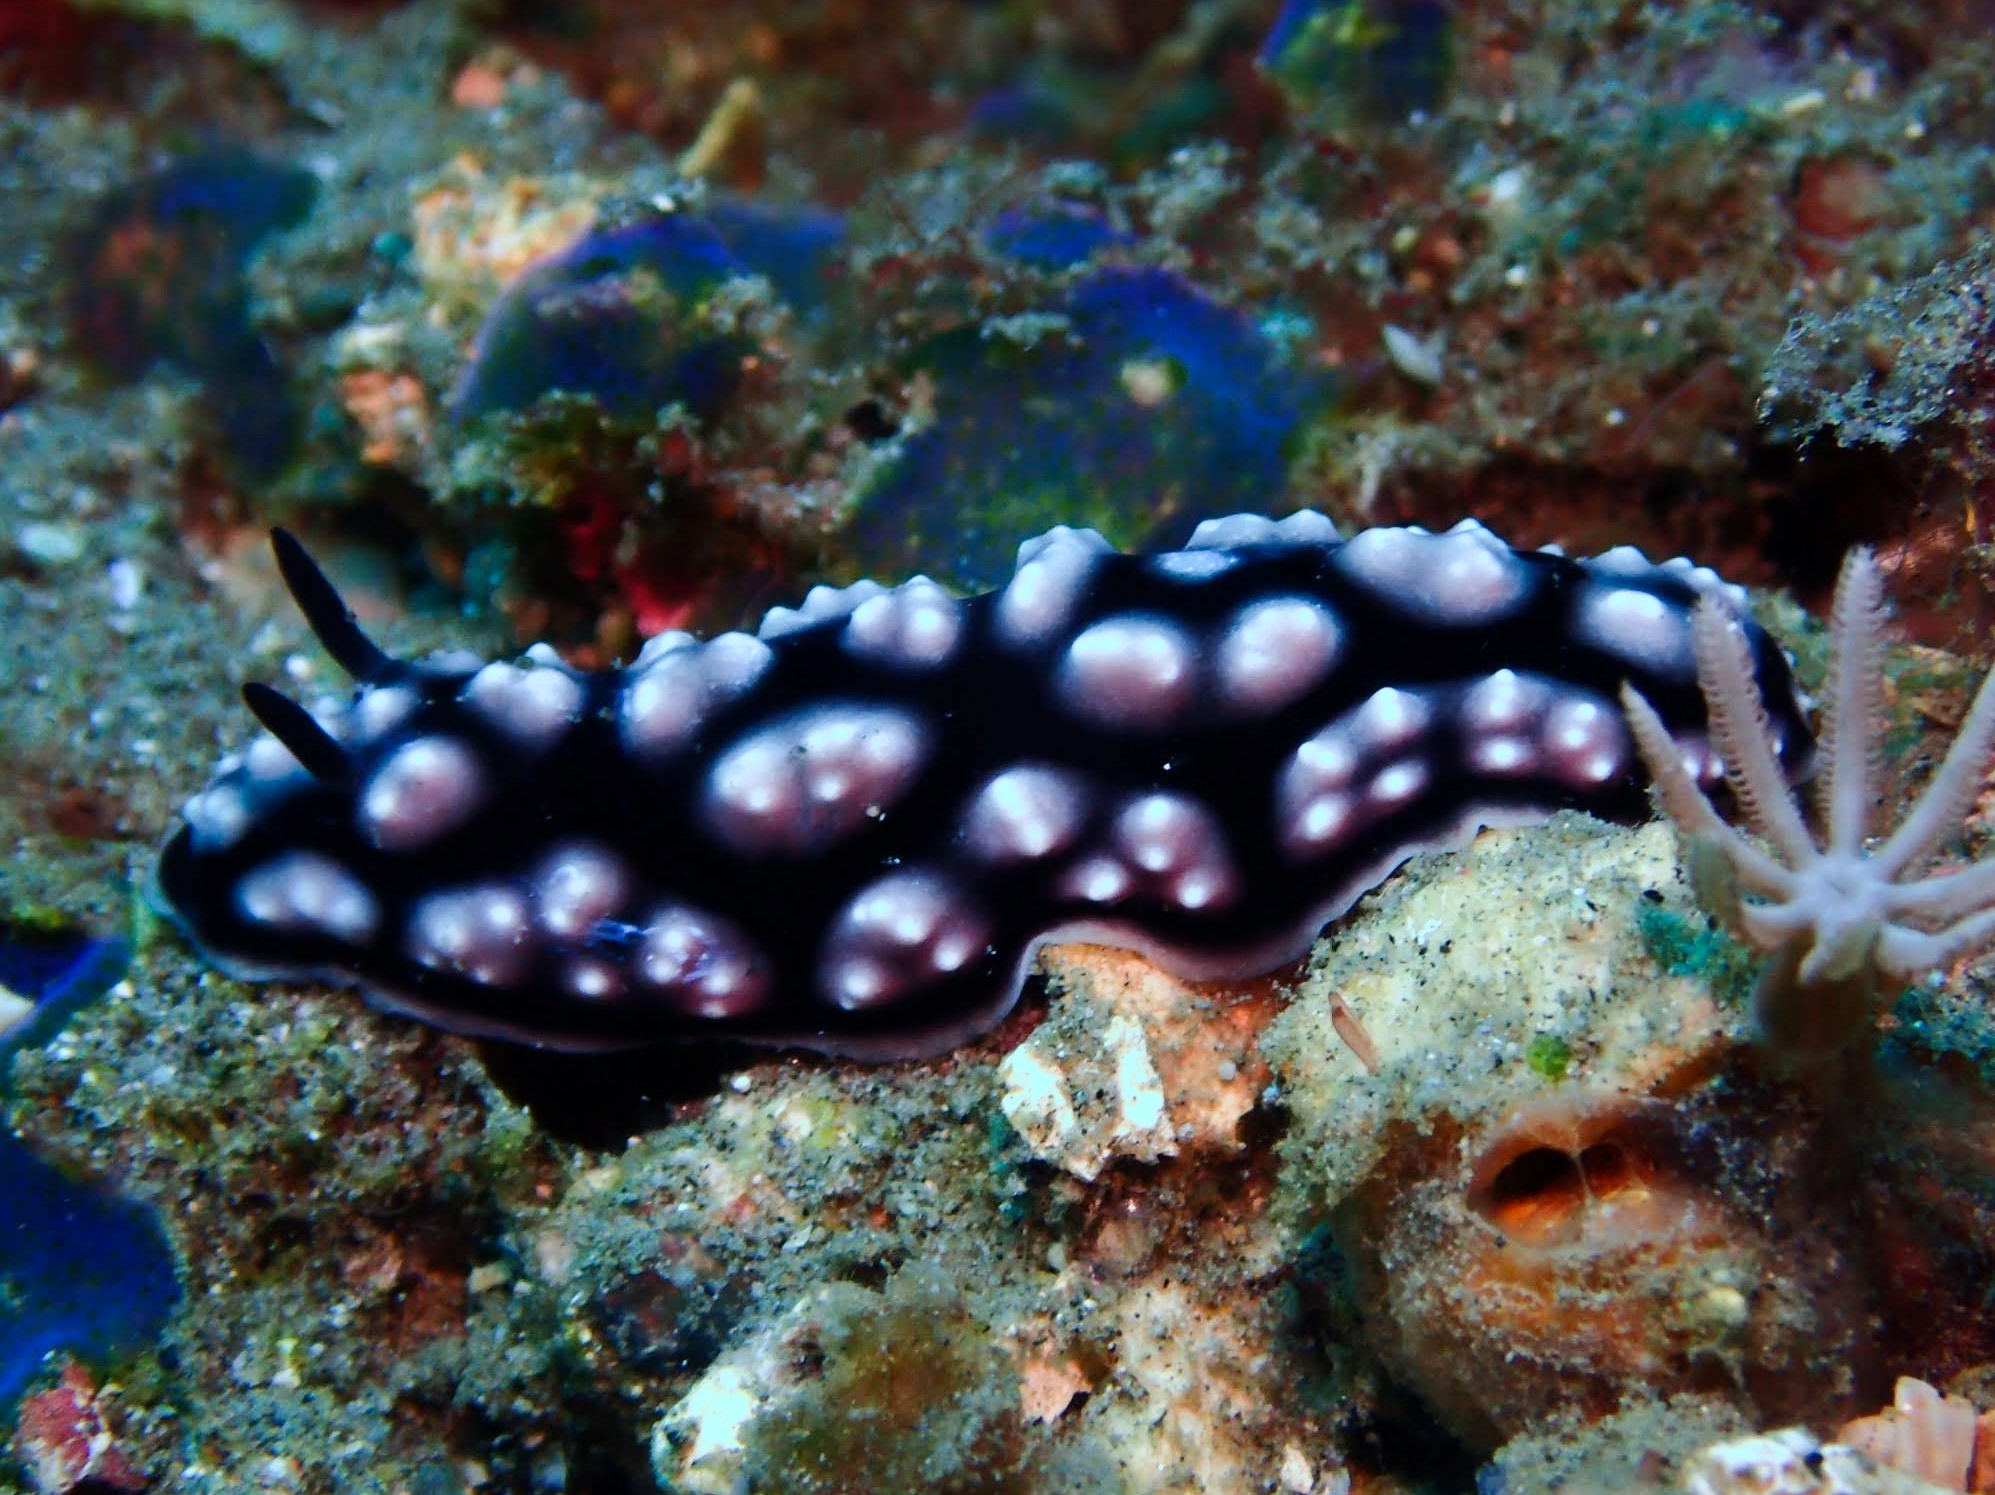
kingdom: Animalia
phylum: Mollusca
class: Gastropoda
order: Nudibranchia
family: Phyllidiidae
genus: Phyllidiella
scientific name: Phyllidiella pustulosa
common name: Pustular phyllidia
